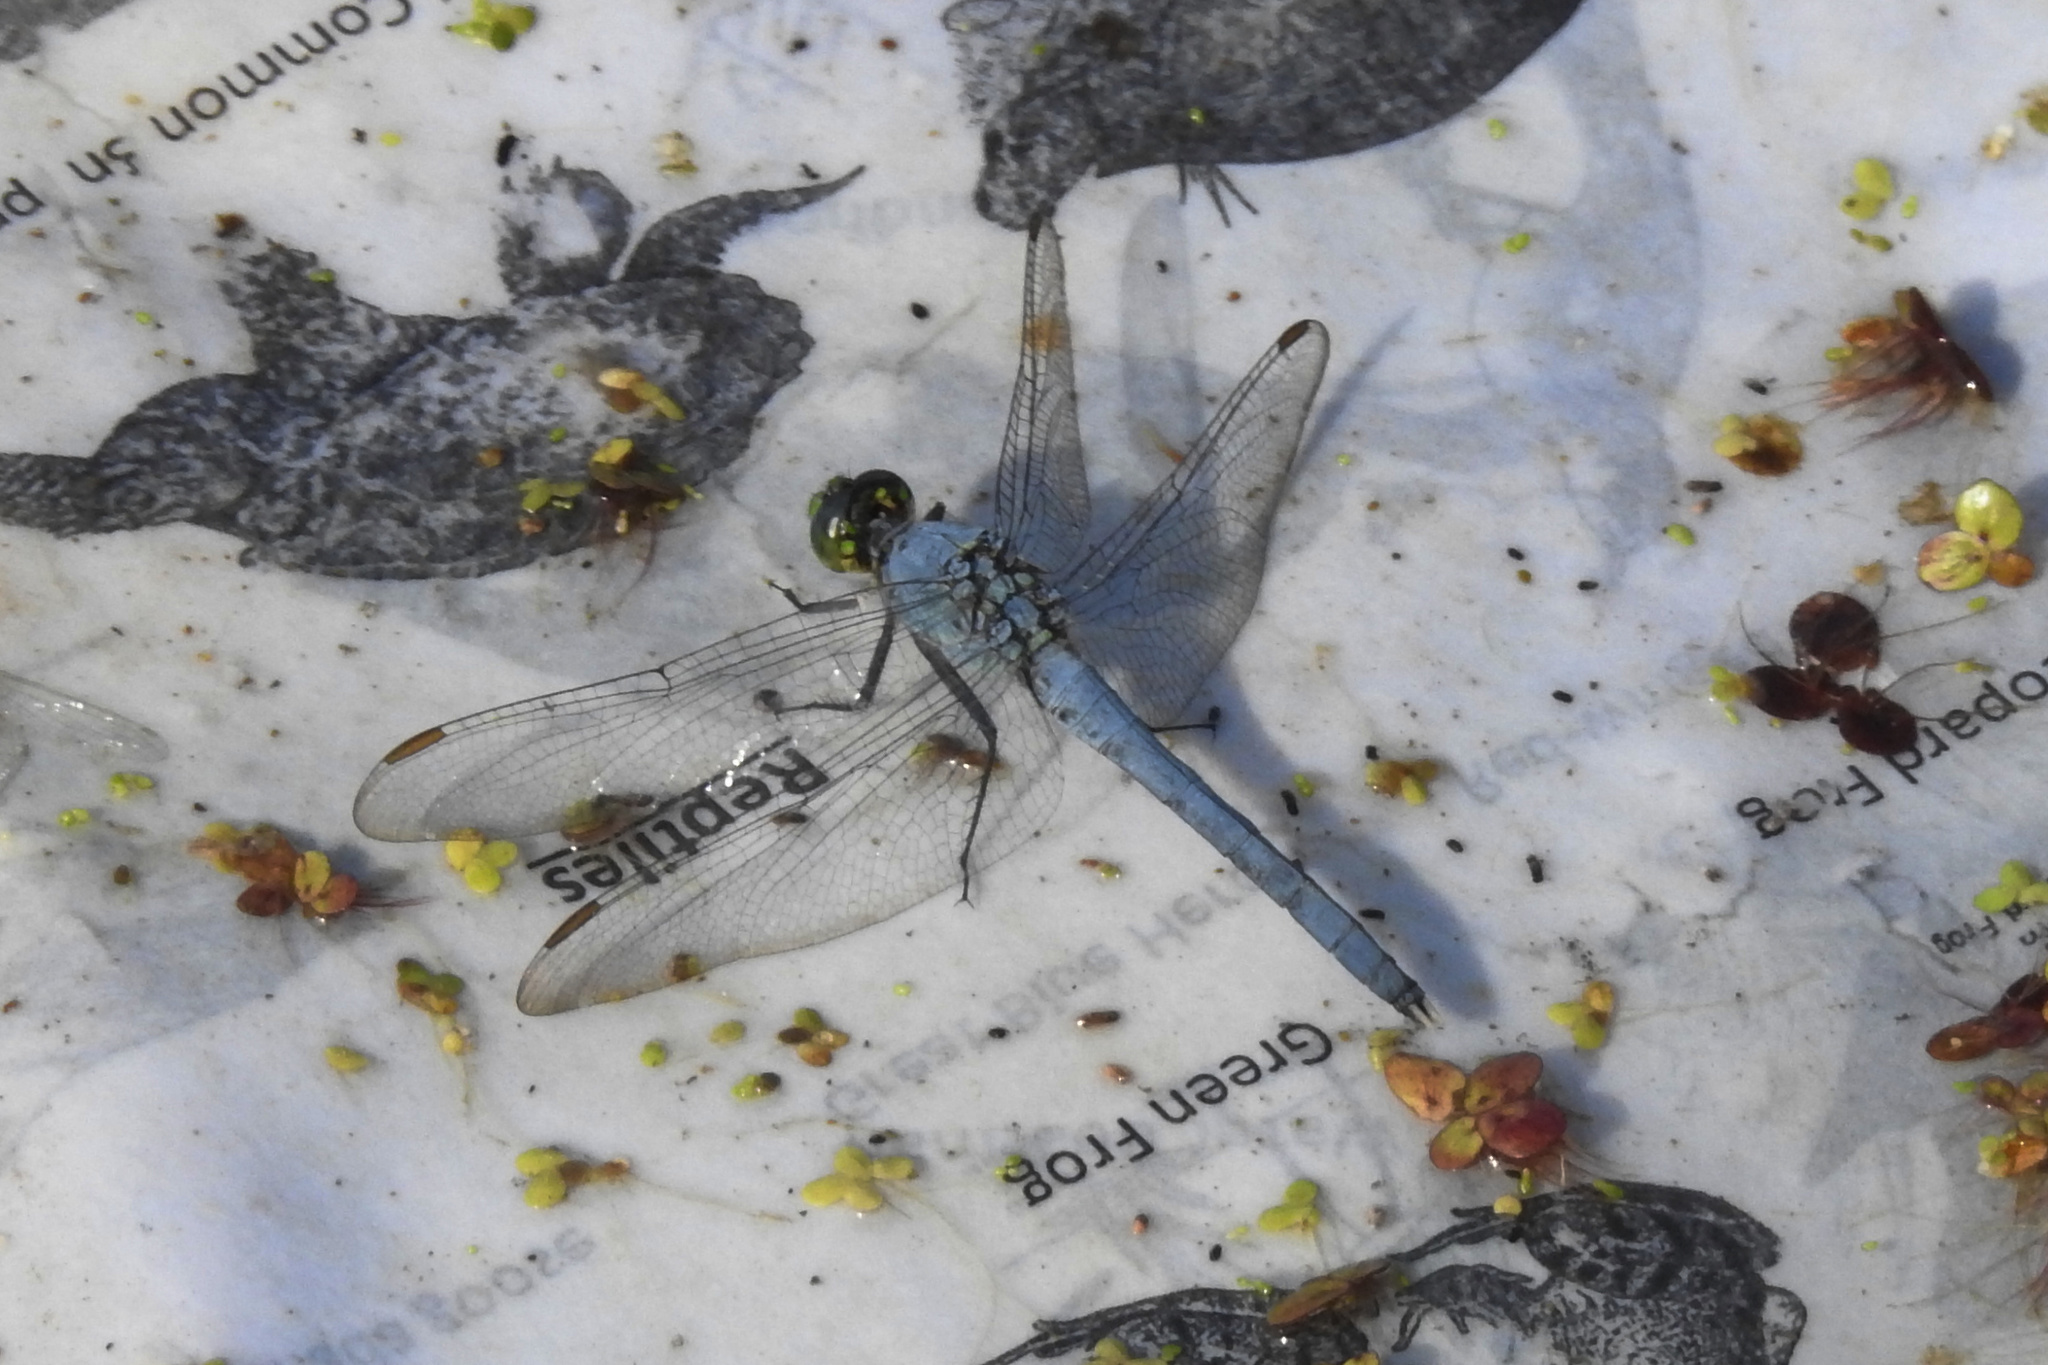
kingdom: Animalia
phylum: Arthropoda
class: Insecta
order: Odonata
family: Libellulidae
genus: Erythemis
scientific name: Erythemis simplicicollis
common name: Eastern pondhawk
